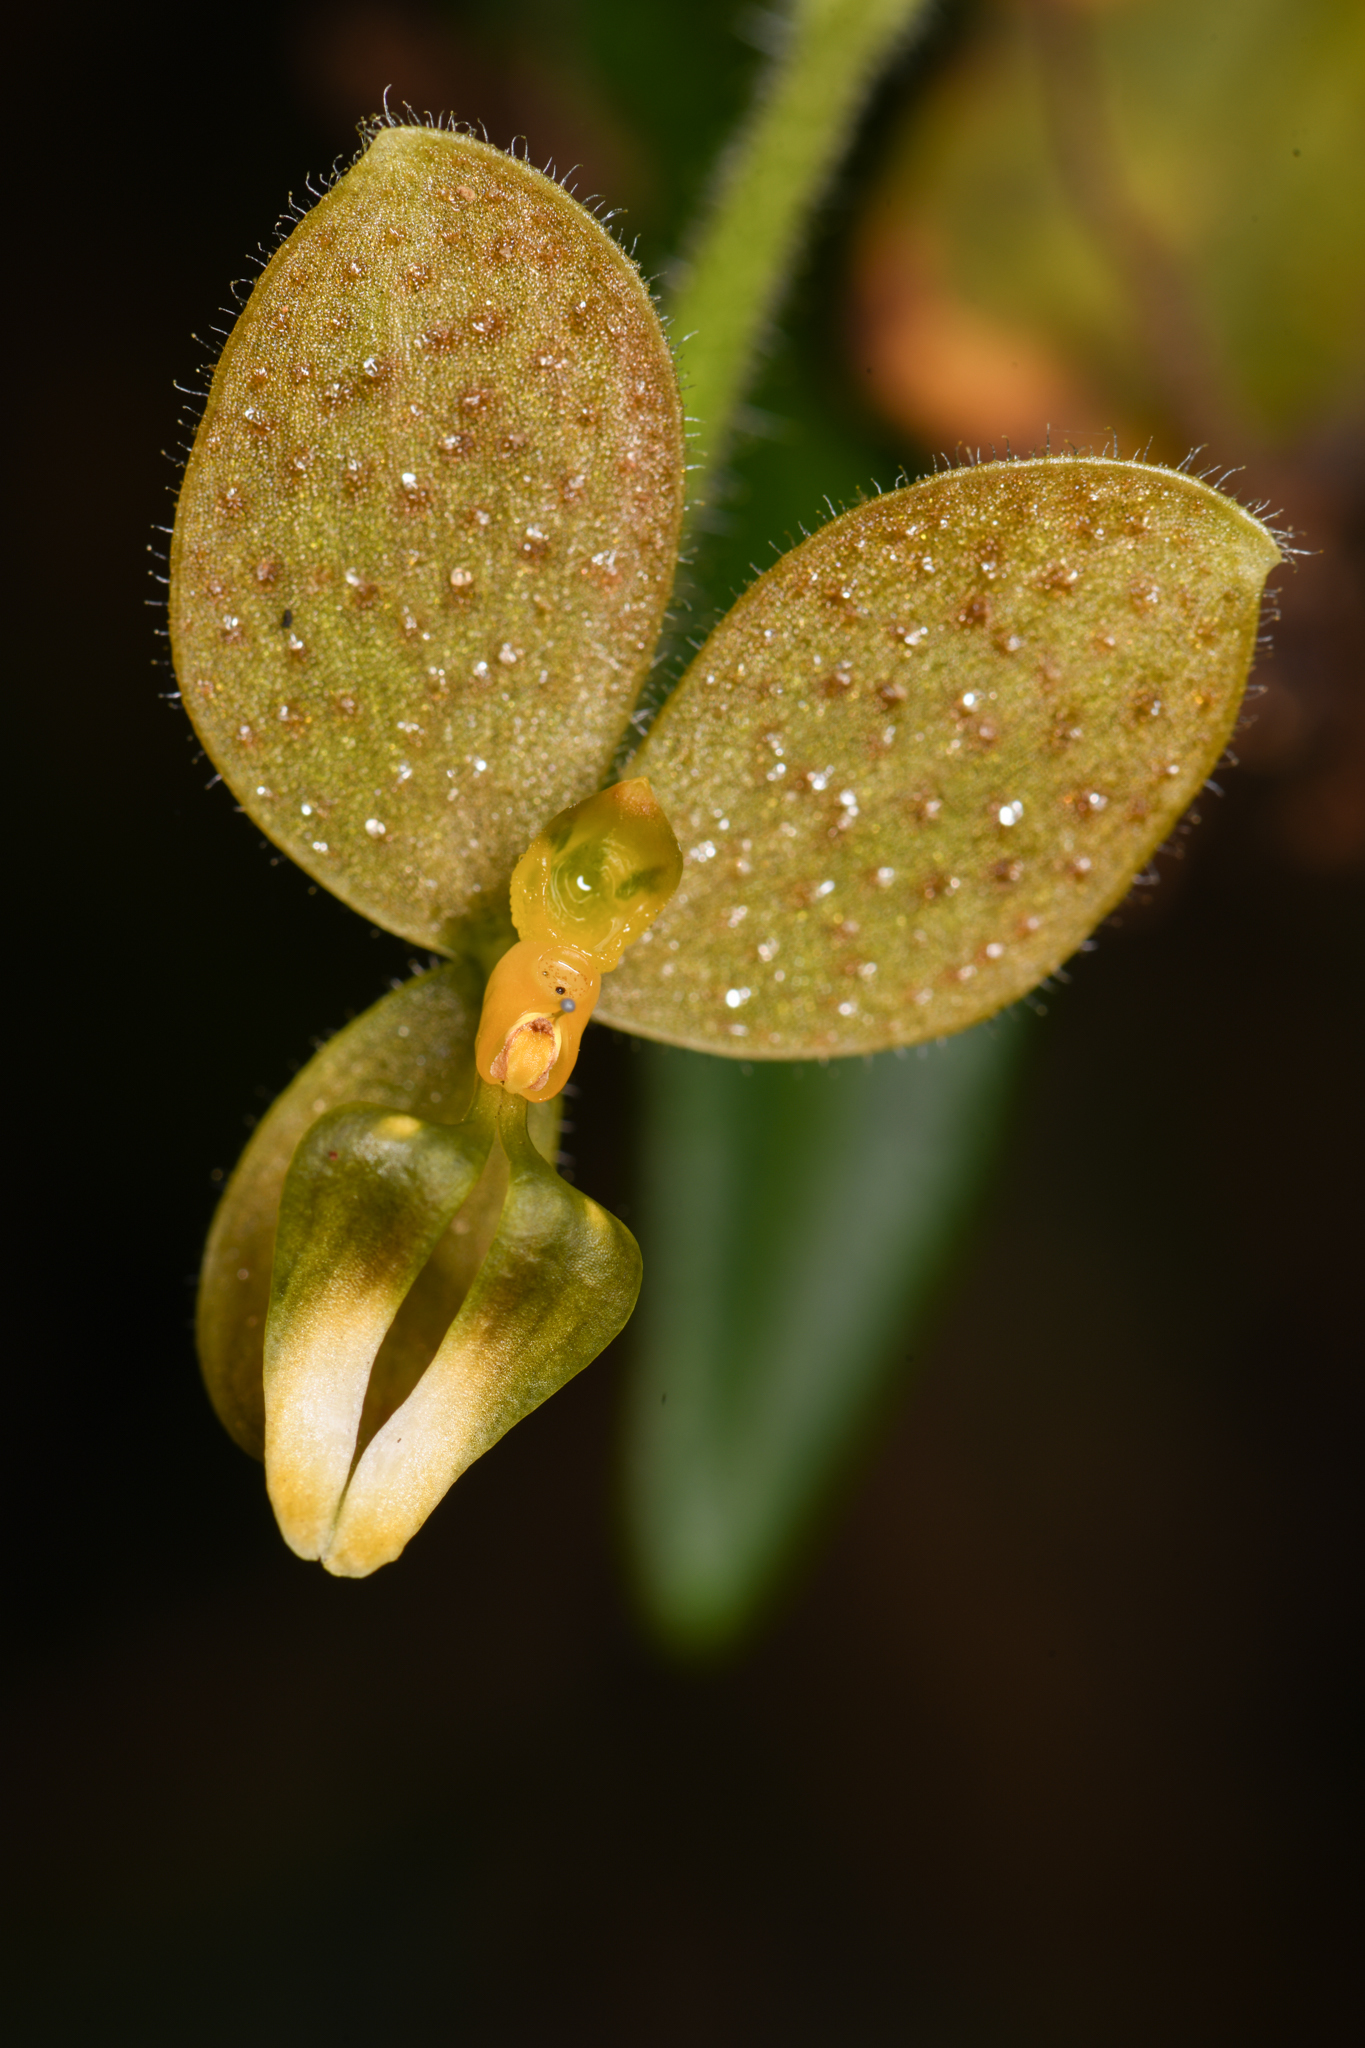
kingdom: Plantae
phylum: Tracheophyta
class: Liliopsida
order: Asparagales
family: Orchidaceae
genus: Ponthieva
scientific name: Ponthieva formosa
